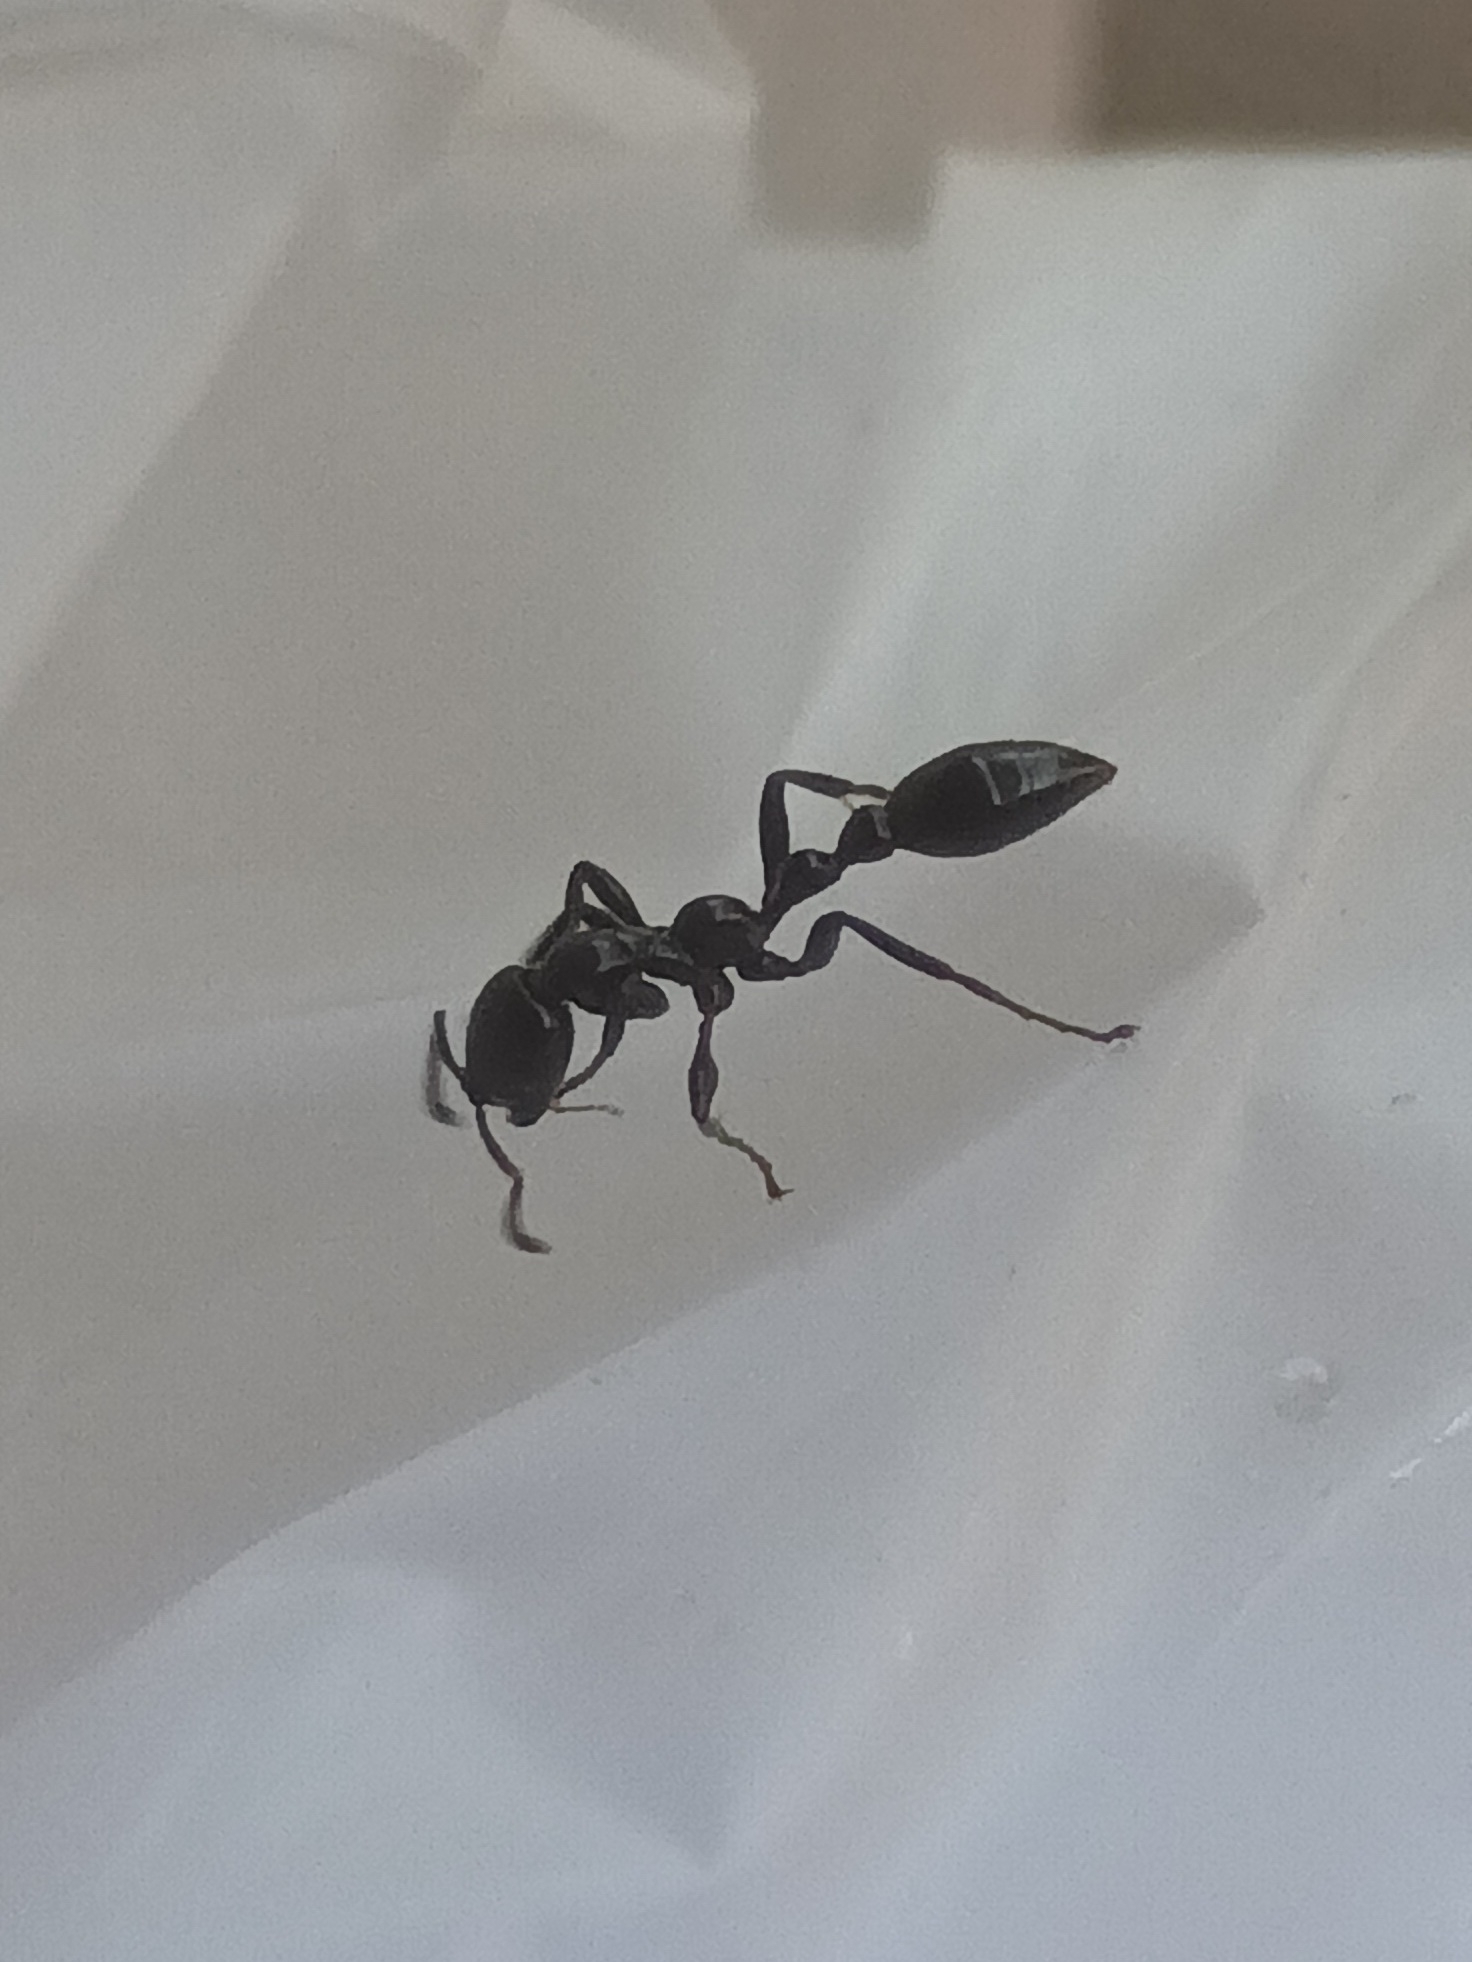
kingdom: Animalia
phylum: Arthropoda
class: Insecta
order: Hymenoptera
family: Formicidae
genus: Tetraponera
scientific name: Tetraponera nigra
